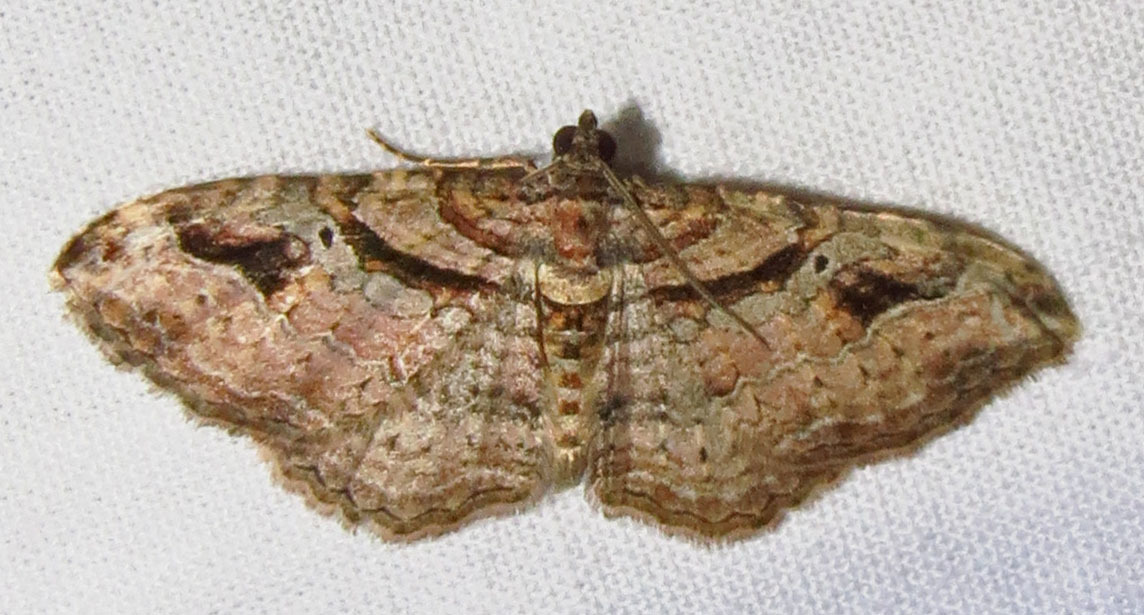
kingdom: Animalia
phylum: Arthropoda
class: Insecta
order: Lepidoptera
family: Geometridae
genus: Costaconvexa
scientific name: Costaconvexa centrostrigaria
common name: Bent-line carpet
